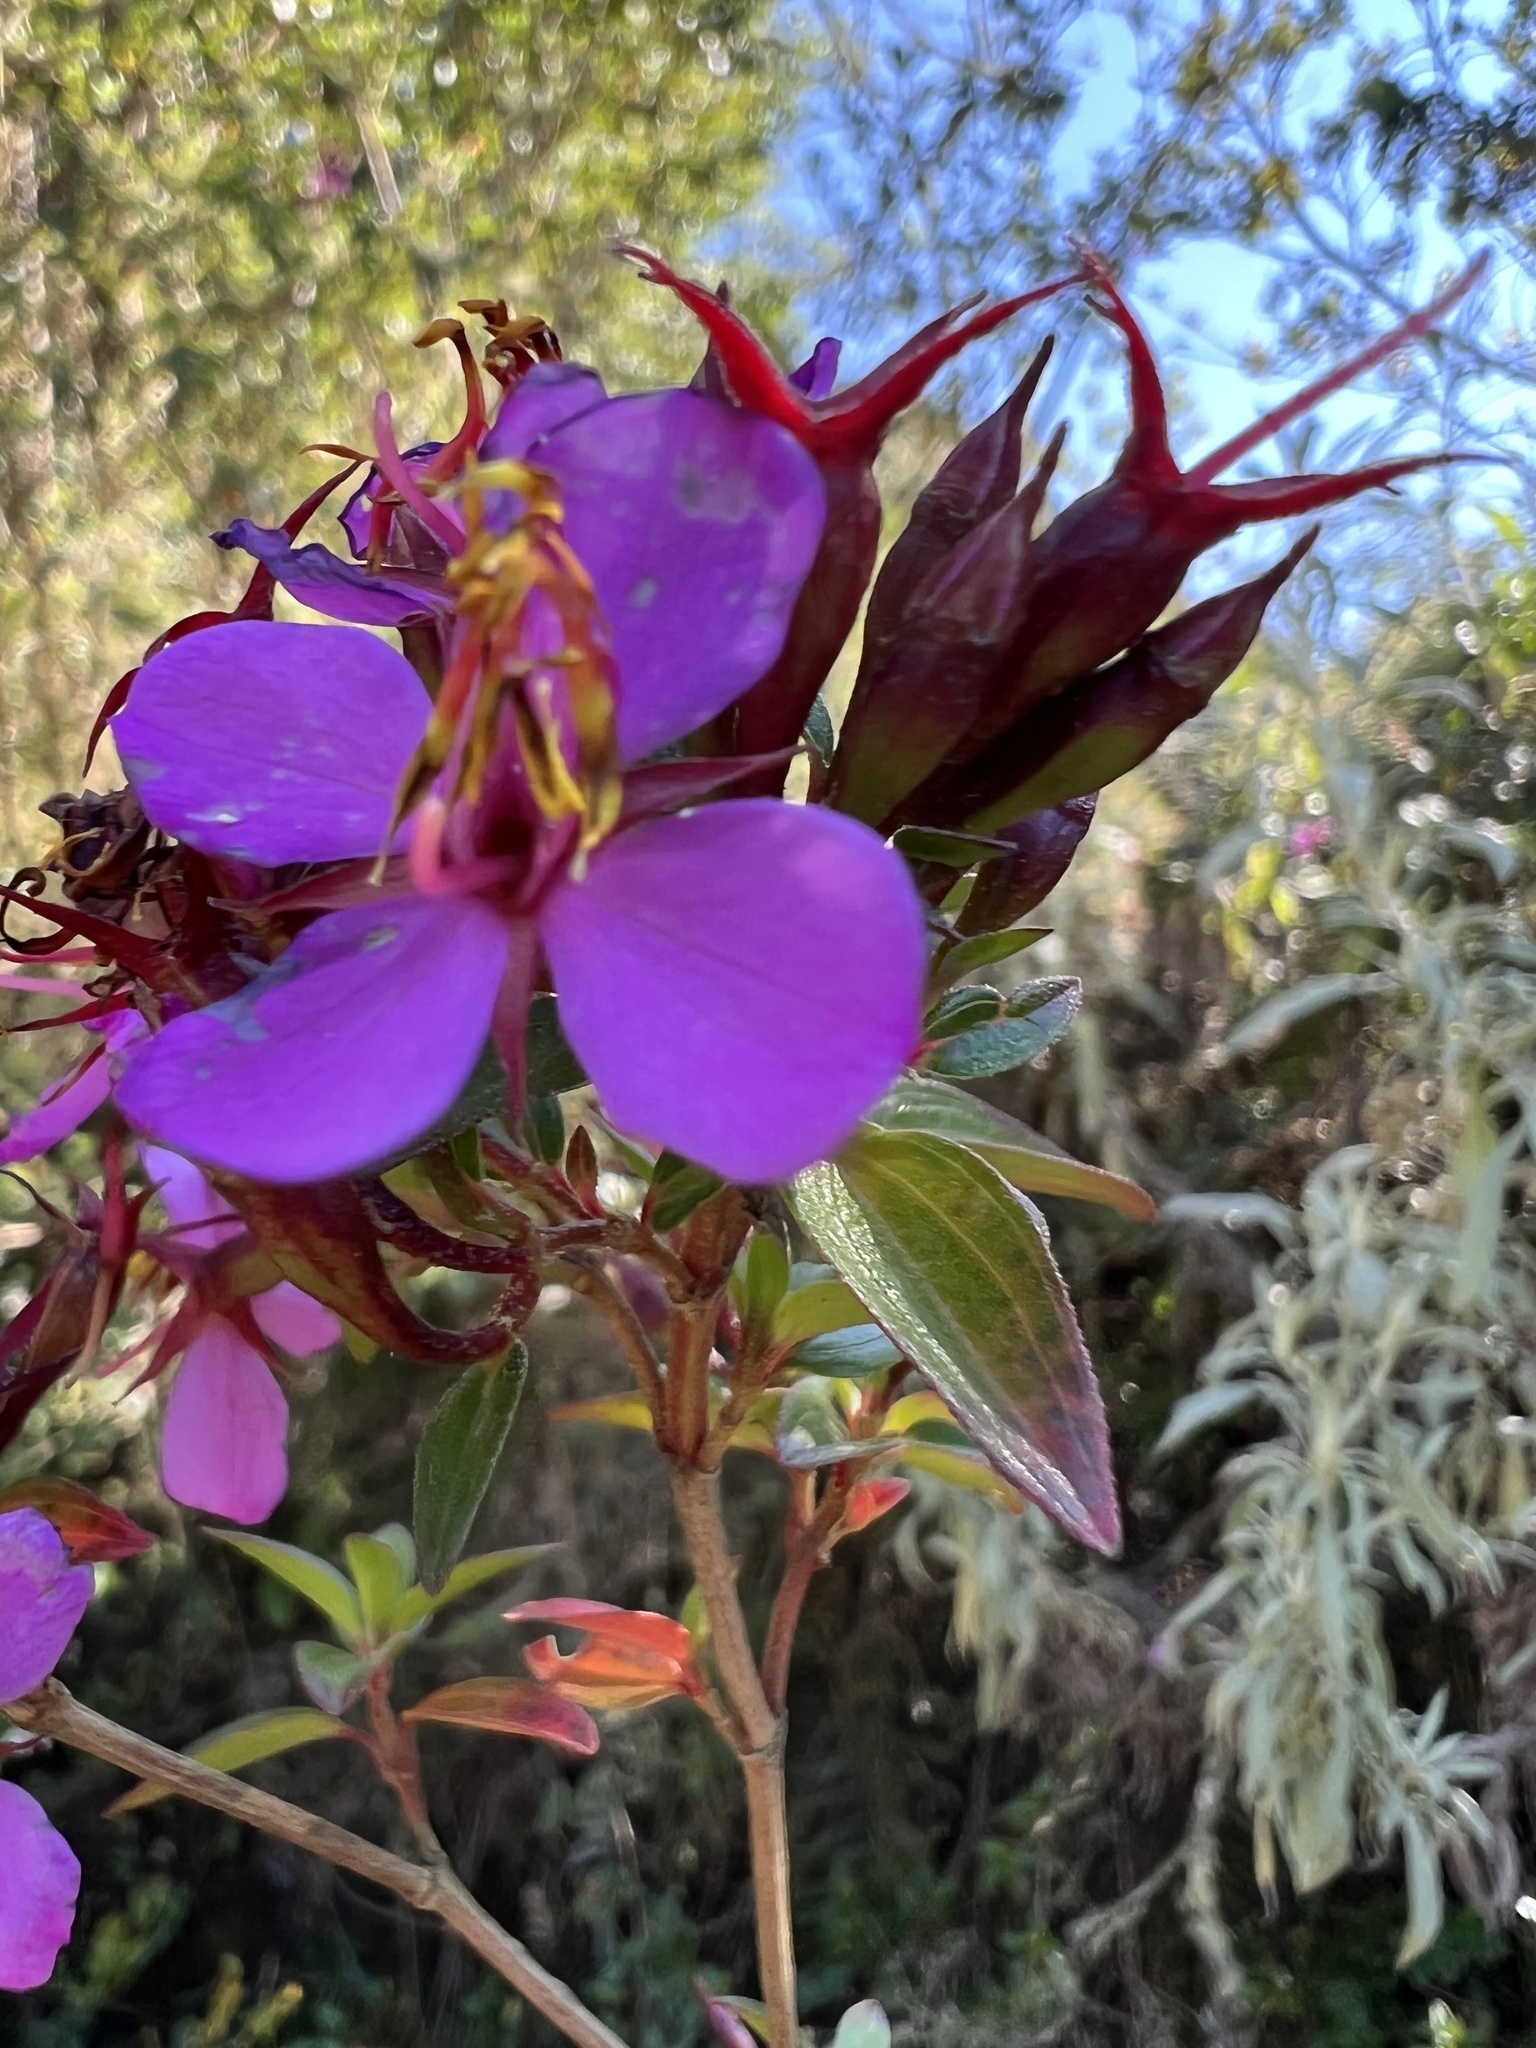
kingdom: Plantae
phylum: Tracheophyta
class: Magnoliopsida
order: Myrtales
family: Melastomataceae
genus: Monochaetum
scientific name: Monochaetum myrtoideum
